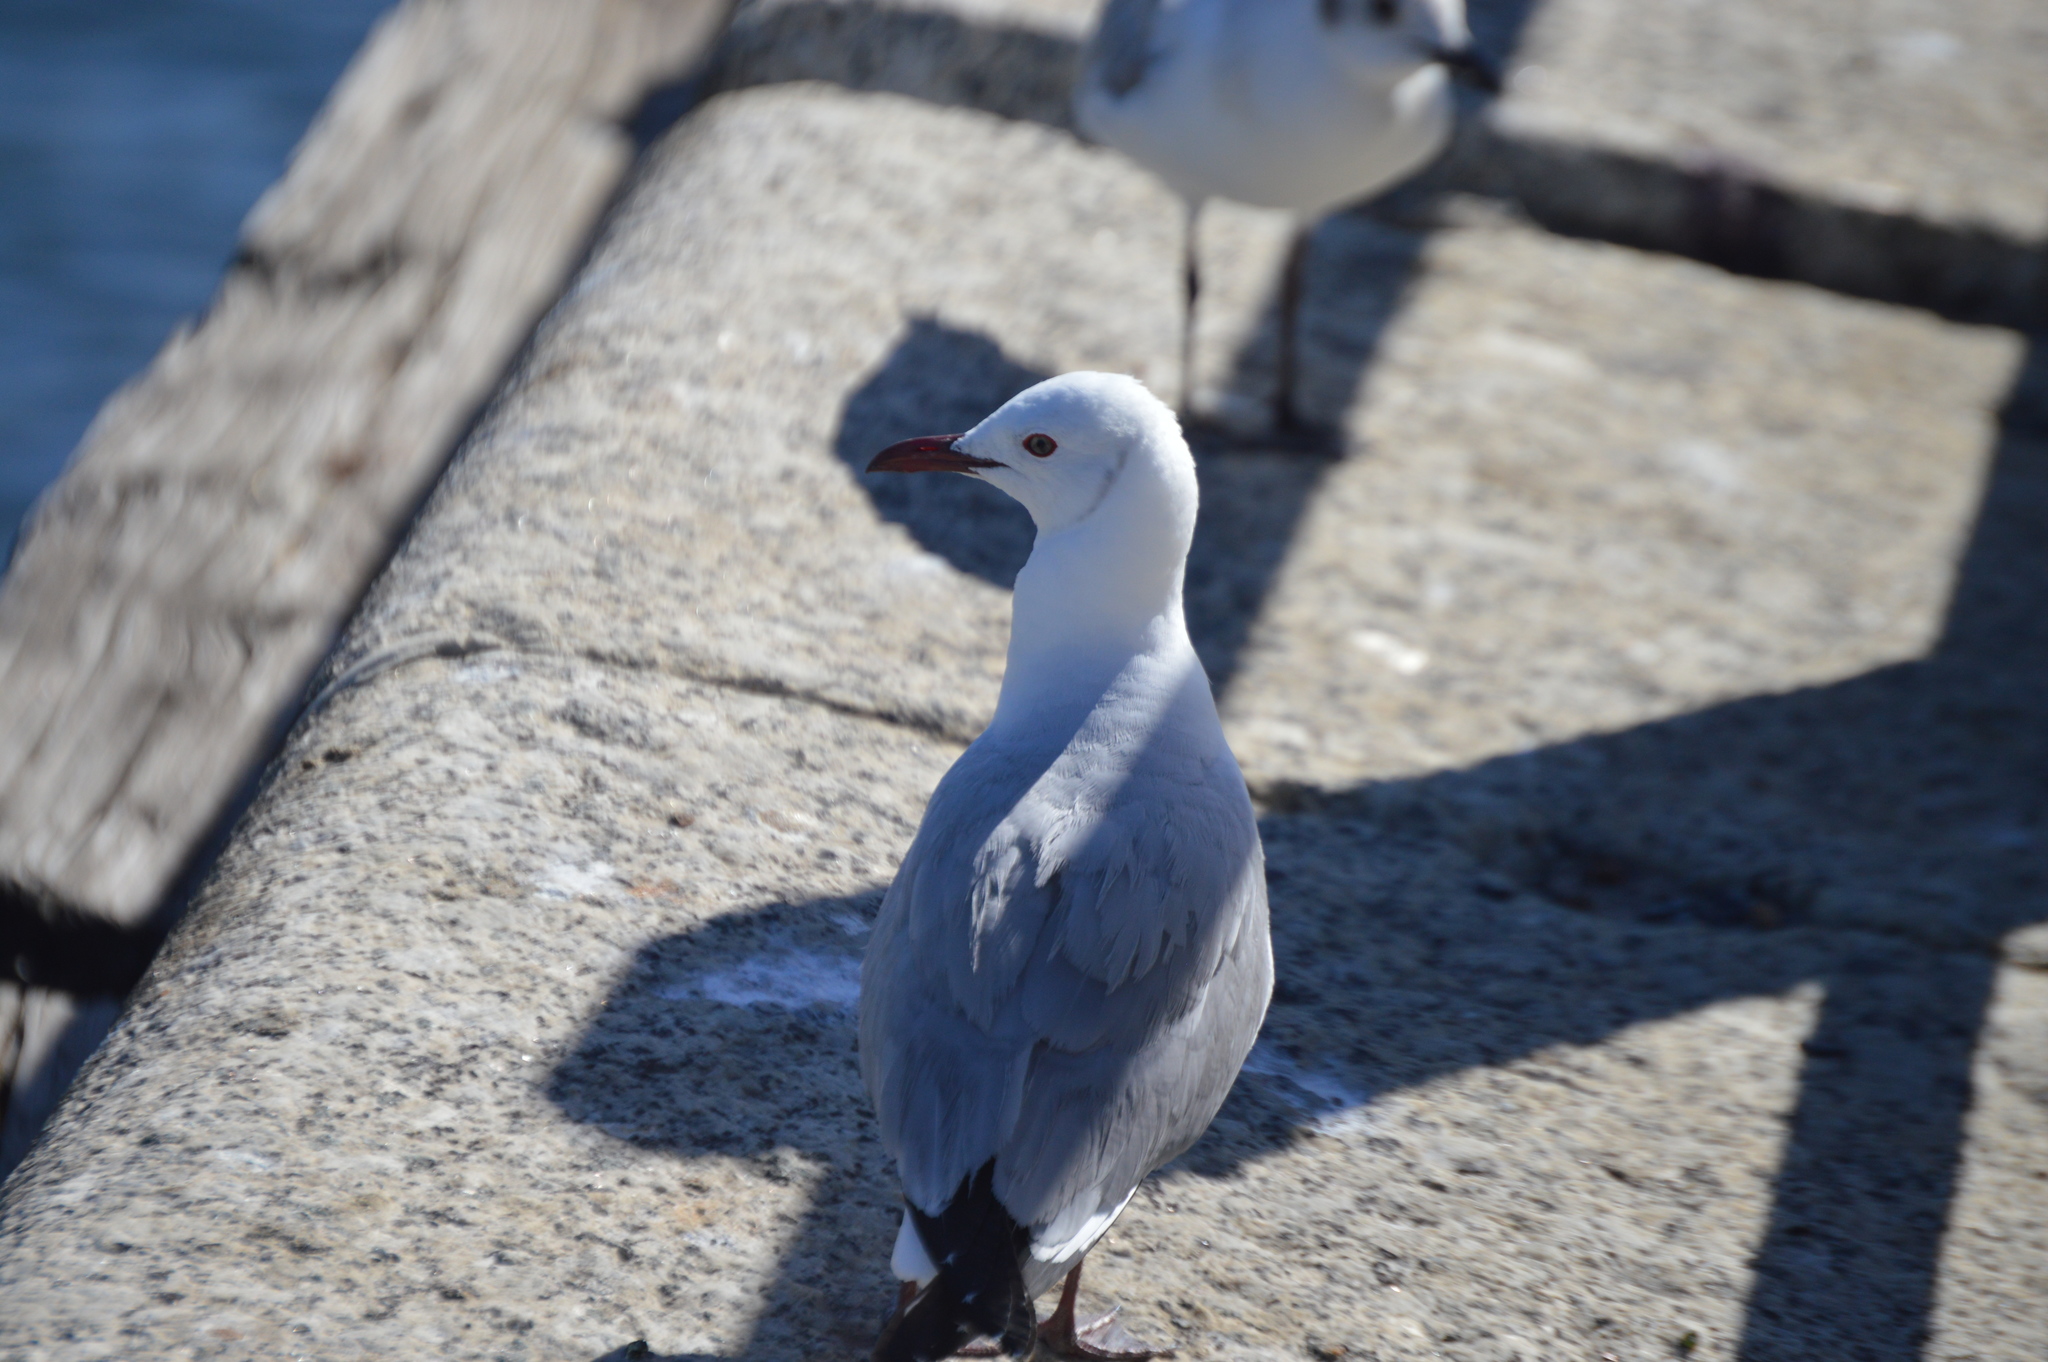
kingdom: Animalia
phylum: Chordata
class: Aves
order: Charadriiformes
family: Laridae
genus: Chroicocephalus
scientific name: Chroicocephalus hartlaubii
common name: Hartlaub's gull
